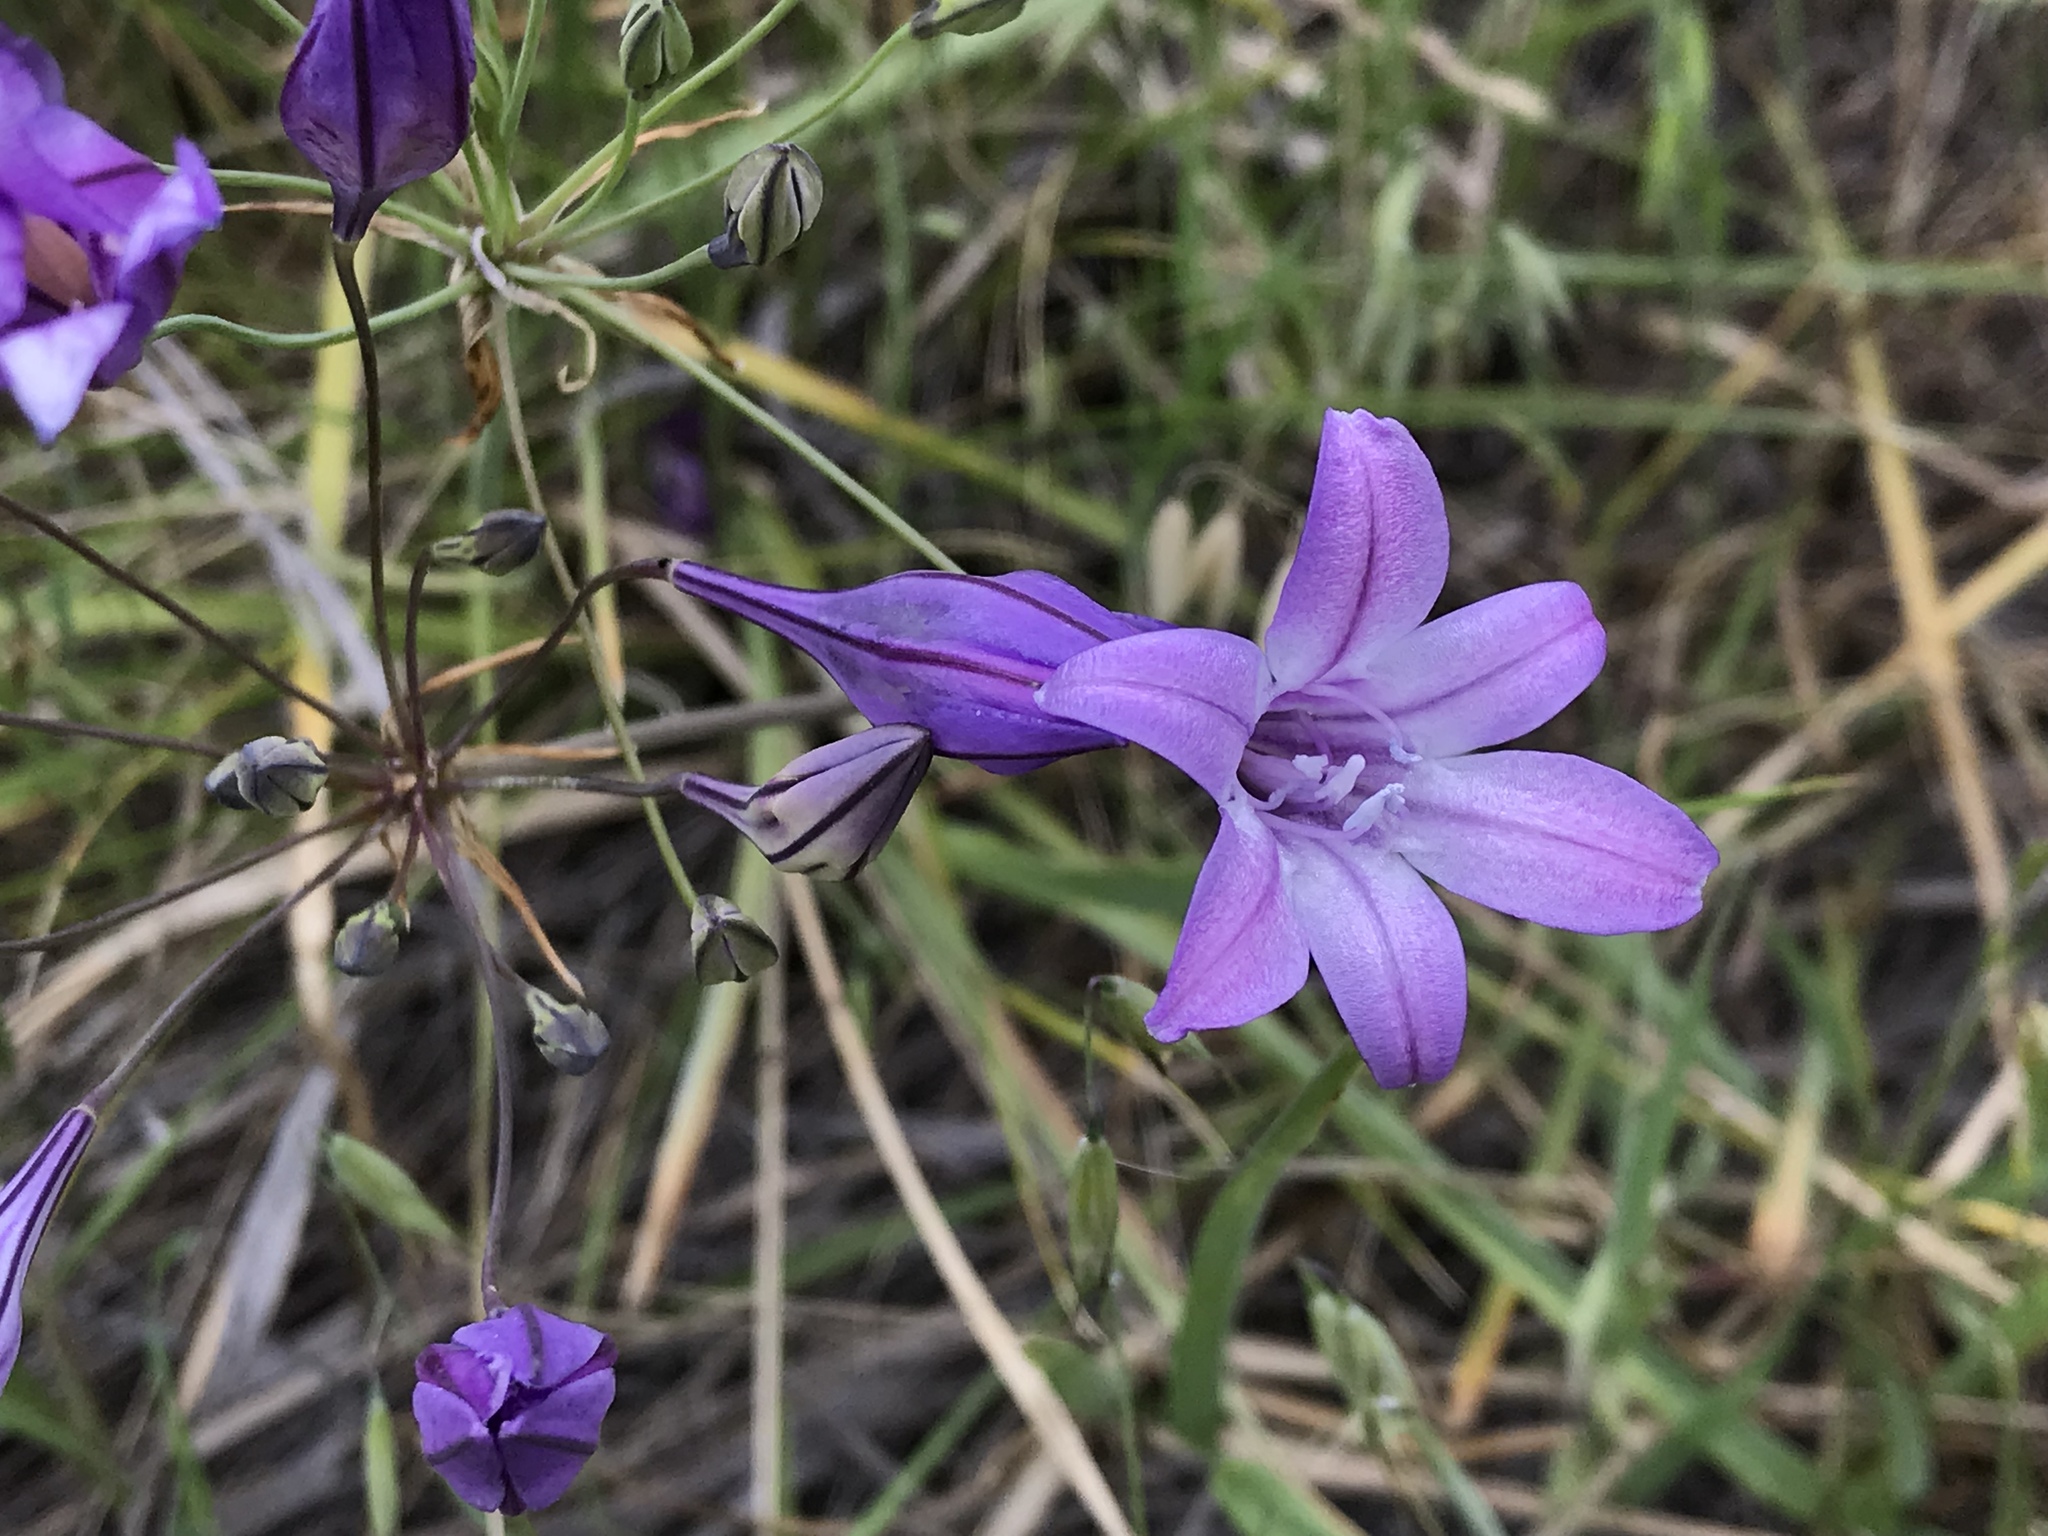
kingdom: Plantae
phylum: Tracheophyta
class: Liliopsida
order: Asparagales
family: Asparagaceae
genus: Triteleia
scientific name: Triteleia laxa
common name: Triplet-lily
